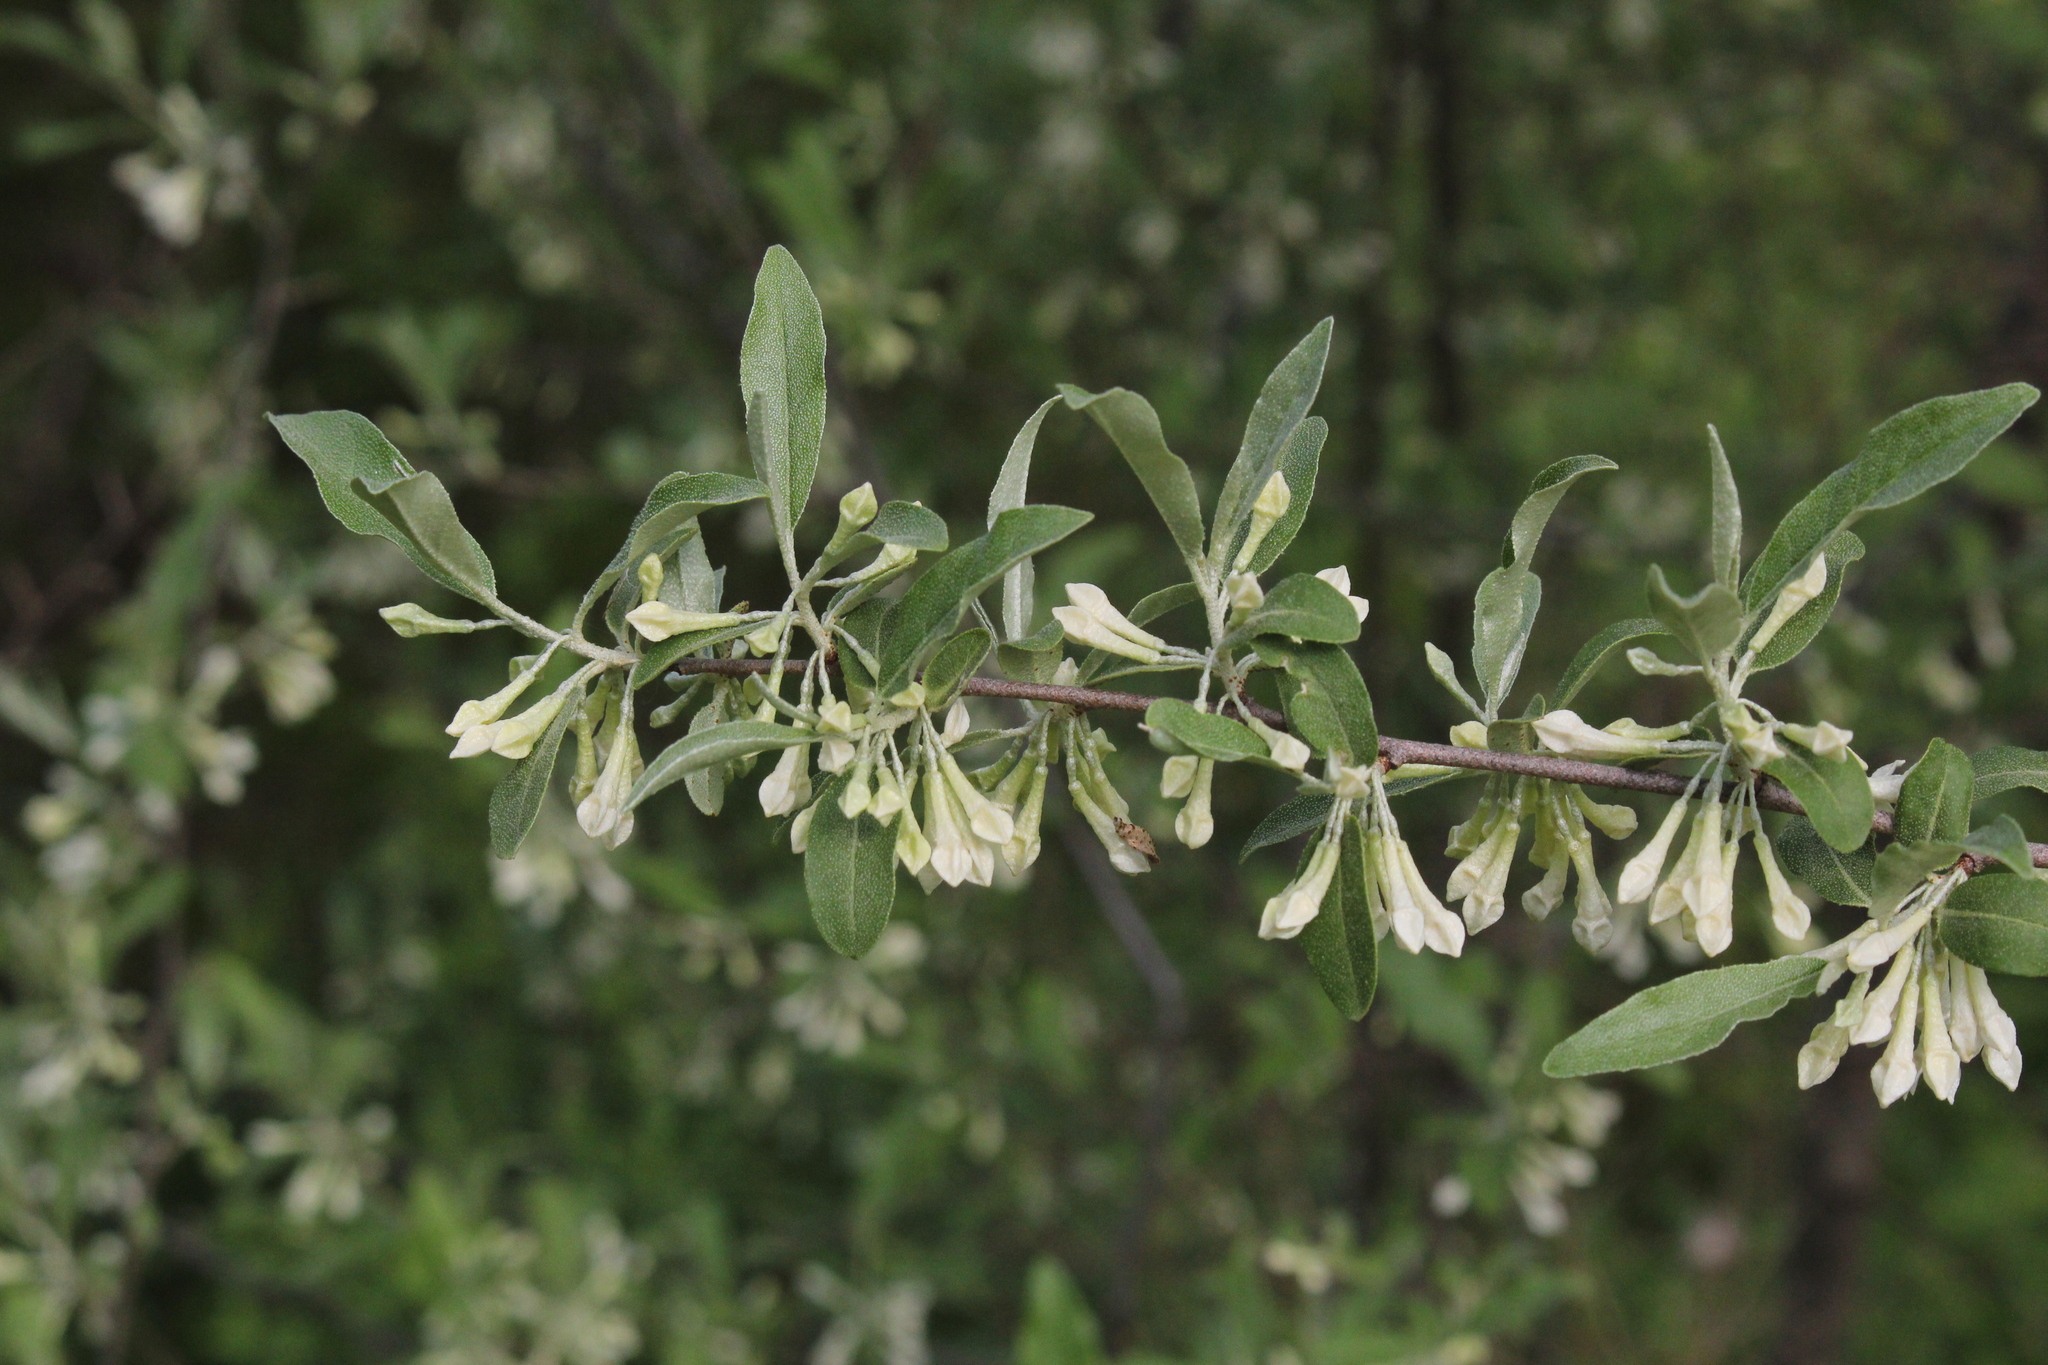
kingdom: Plantae
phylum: Tracheophyta
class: Magnoliopsida
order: Rosales
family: Elaeagnaceae
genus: Elaeagnus
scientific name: Elaeagnus umbellata
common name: Autumn olive
